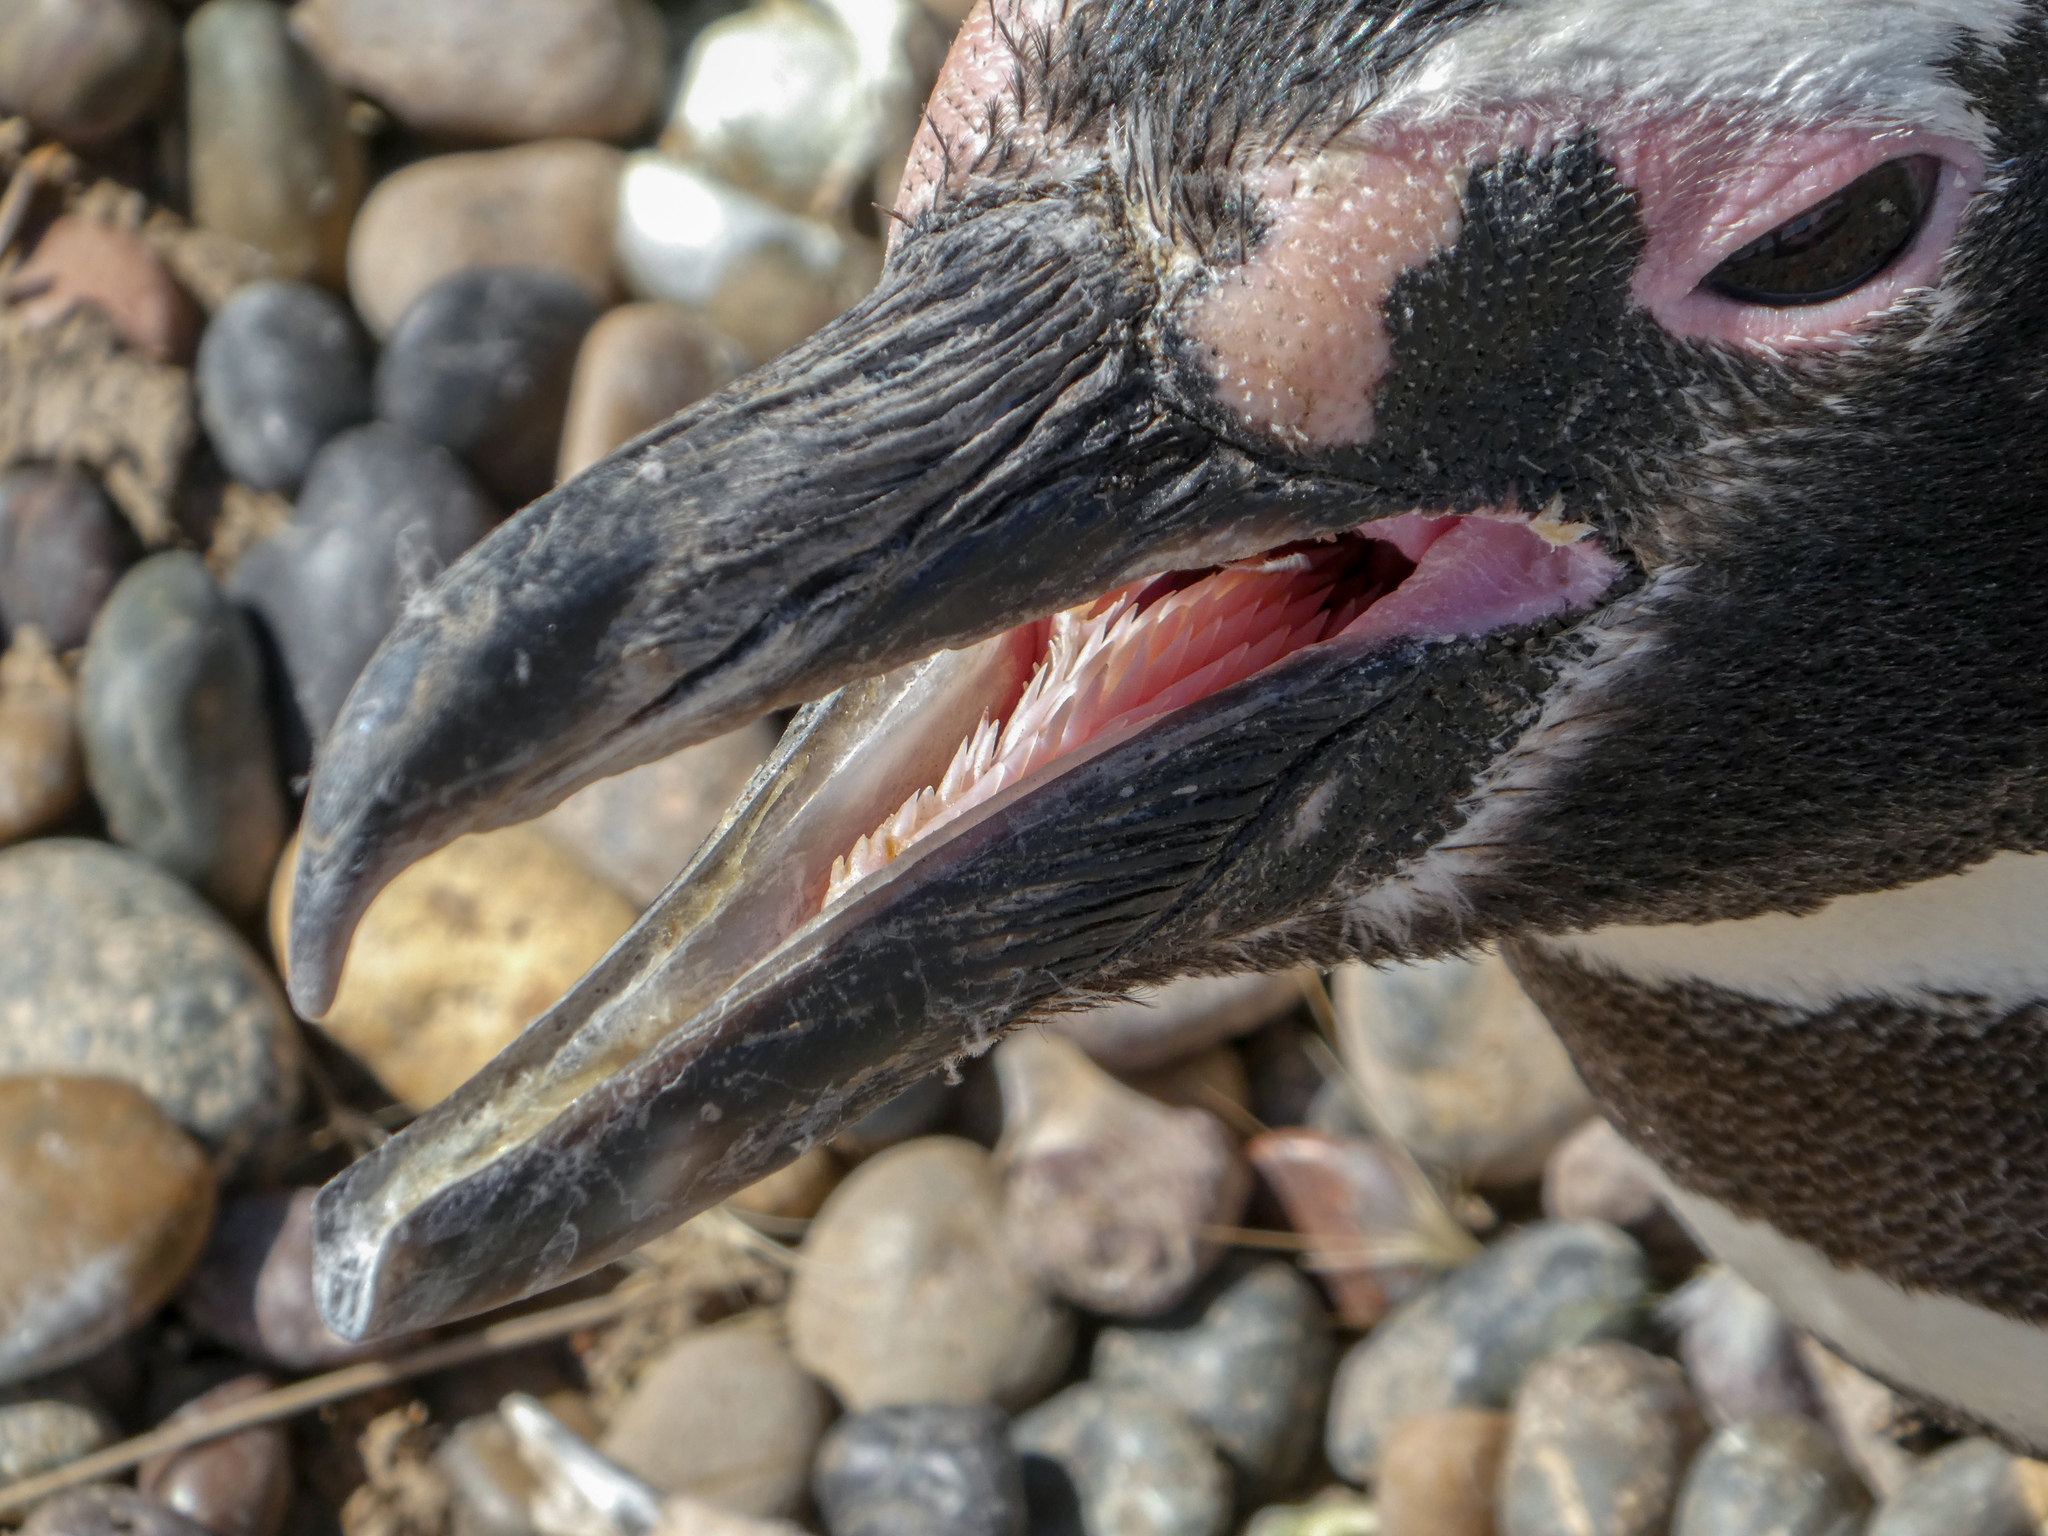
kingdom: Animalia
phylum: Chordata
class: Aves
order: Sphenisciformes
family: Spheniscidae
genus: Spheniscus
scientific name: Spheniscus magellanicus
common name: Magellanic penguin
